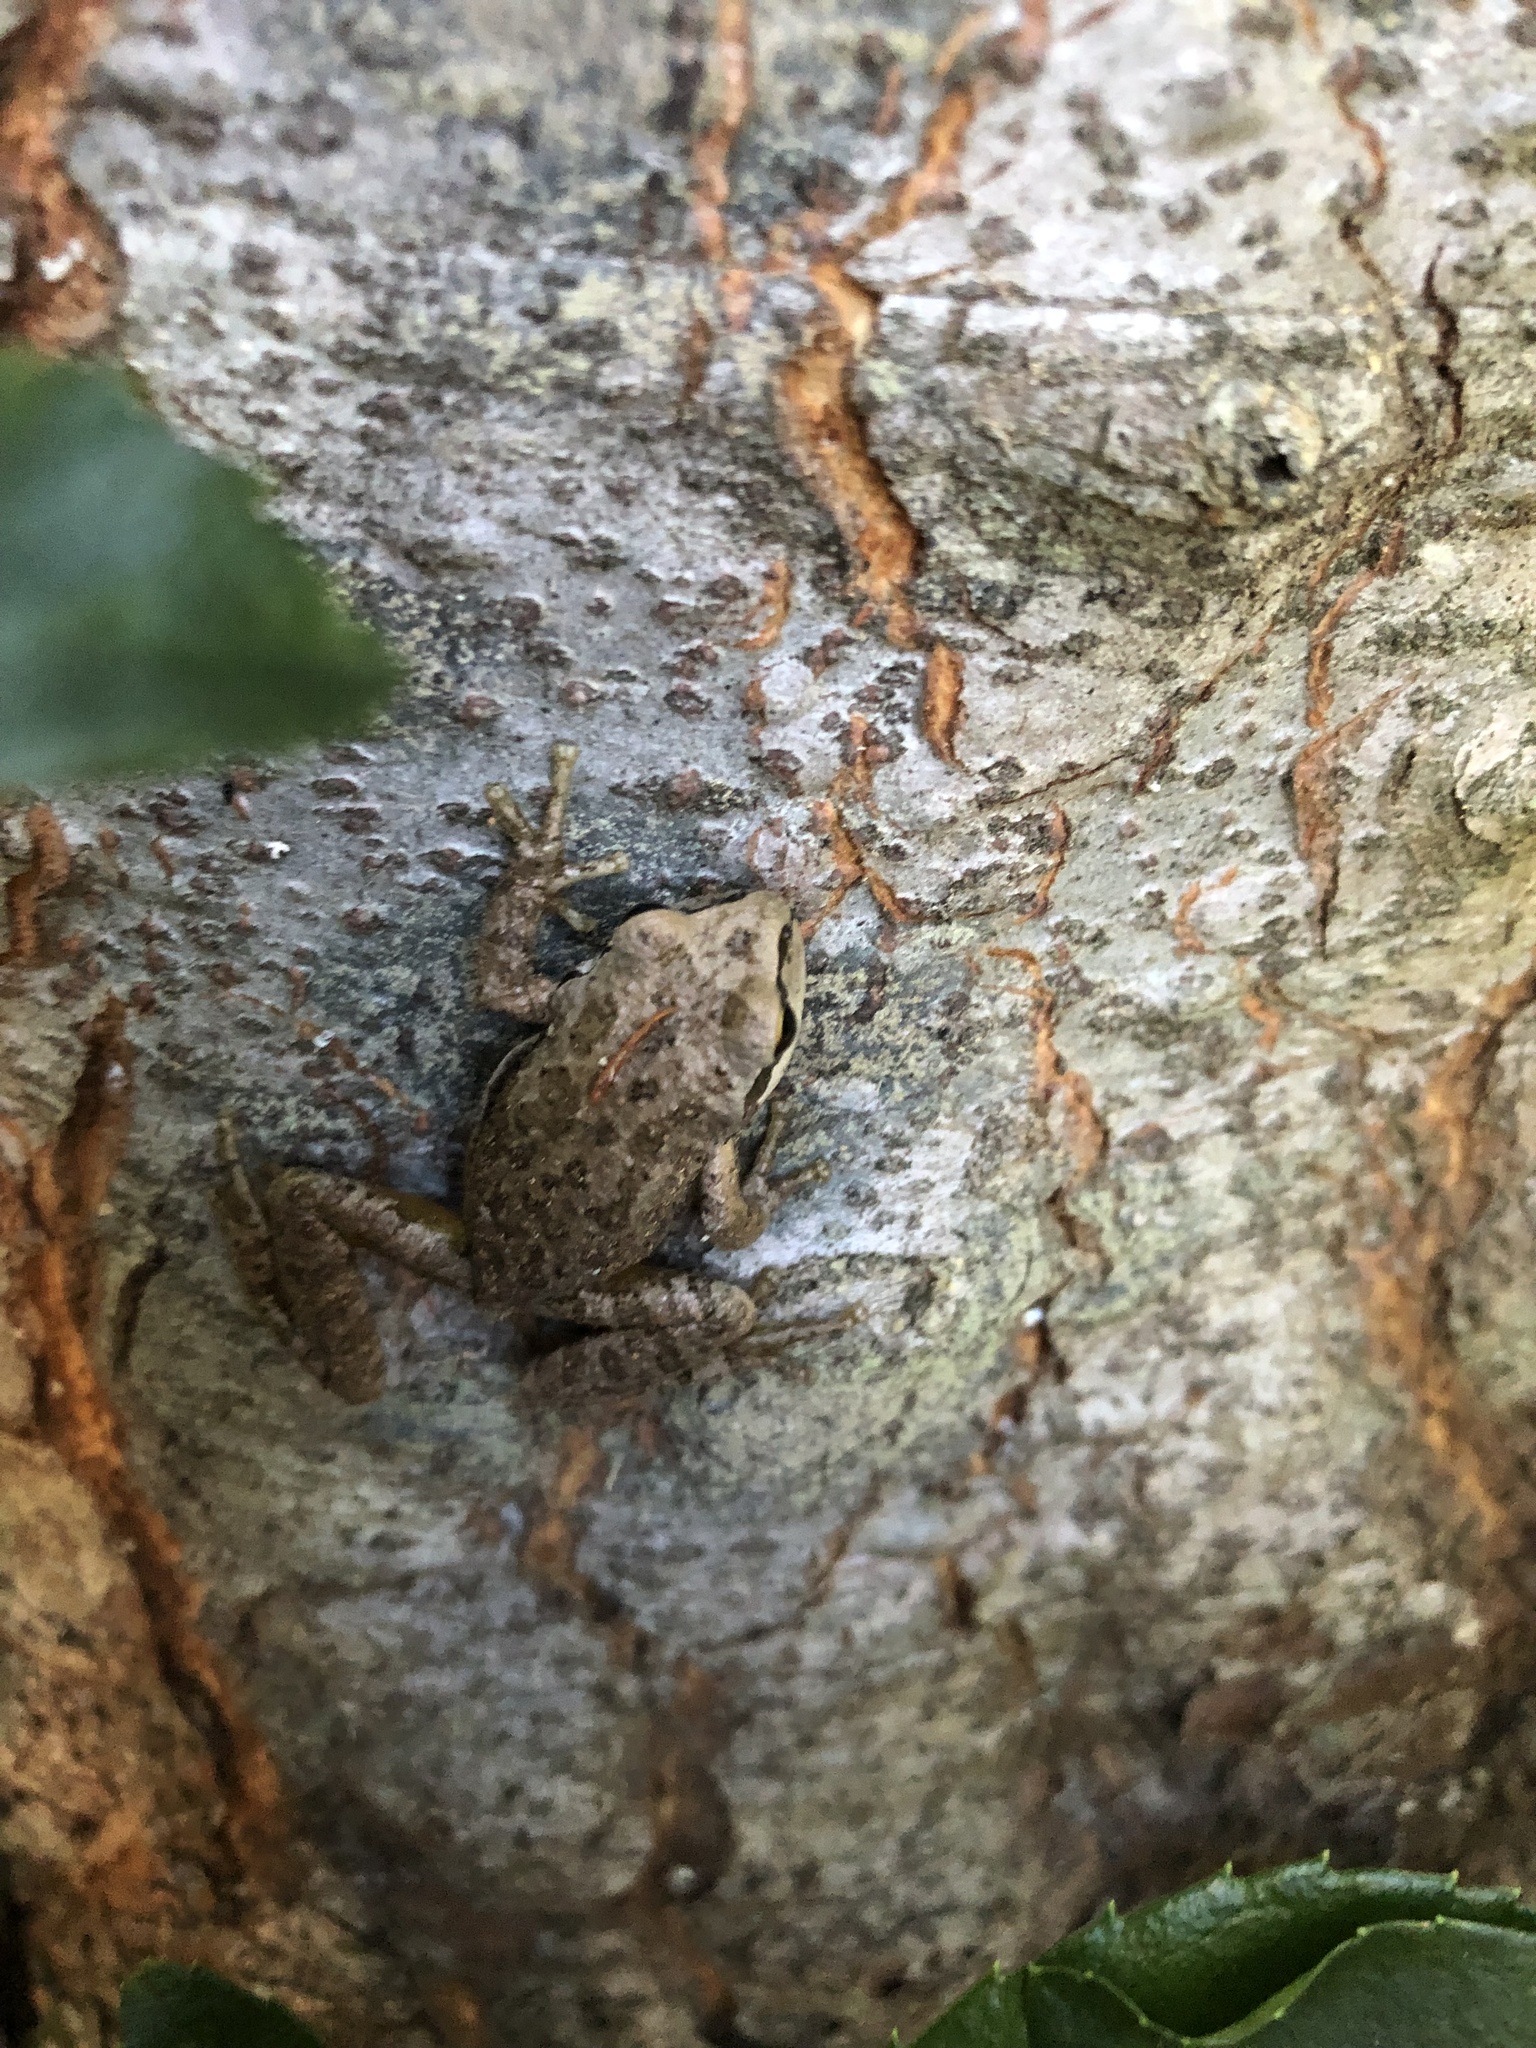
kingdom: Animalia
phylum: Chordata
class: Amphibia
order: Anura
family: Hylidae
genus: Pseudacris
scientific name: Pseudacris regilla
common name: Pacific chorus frog
